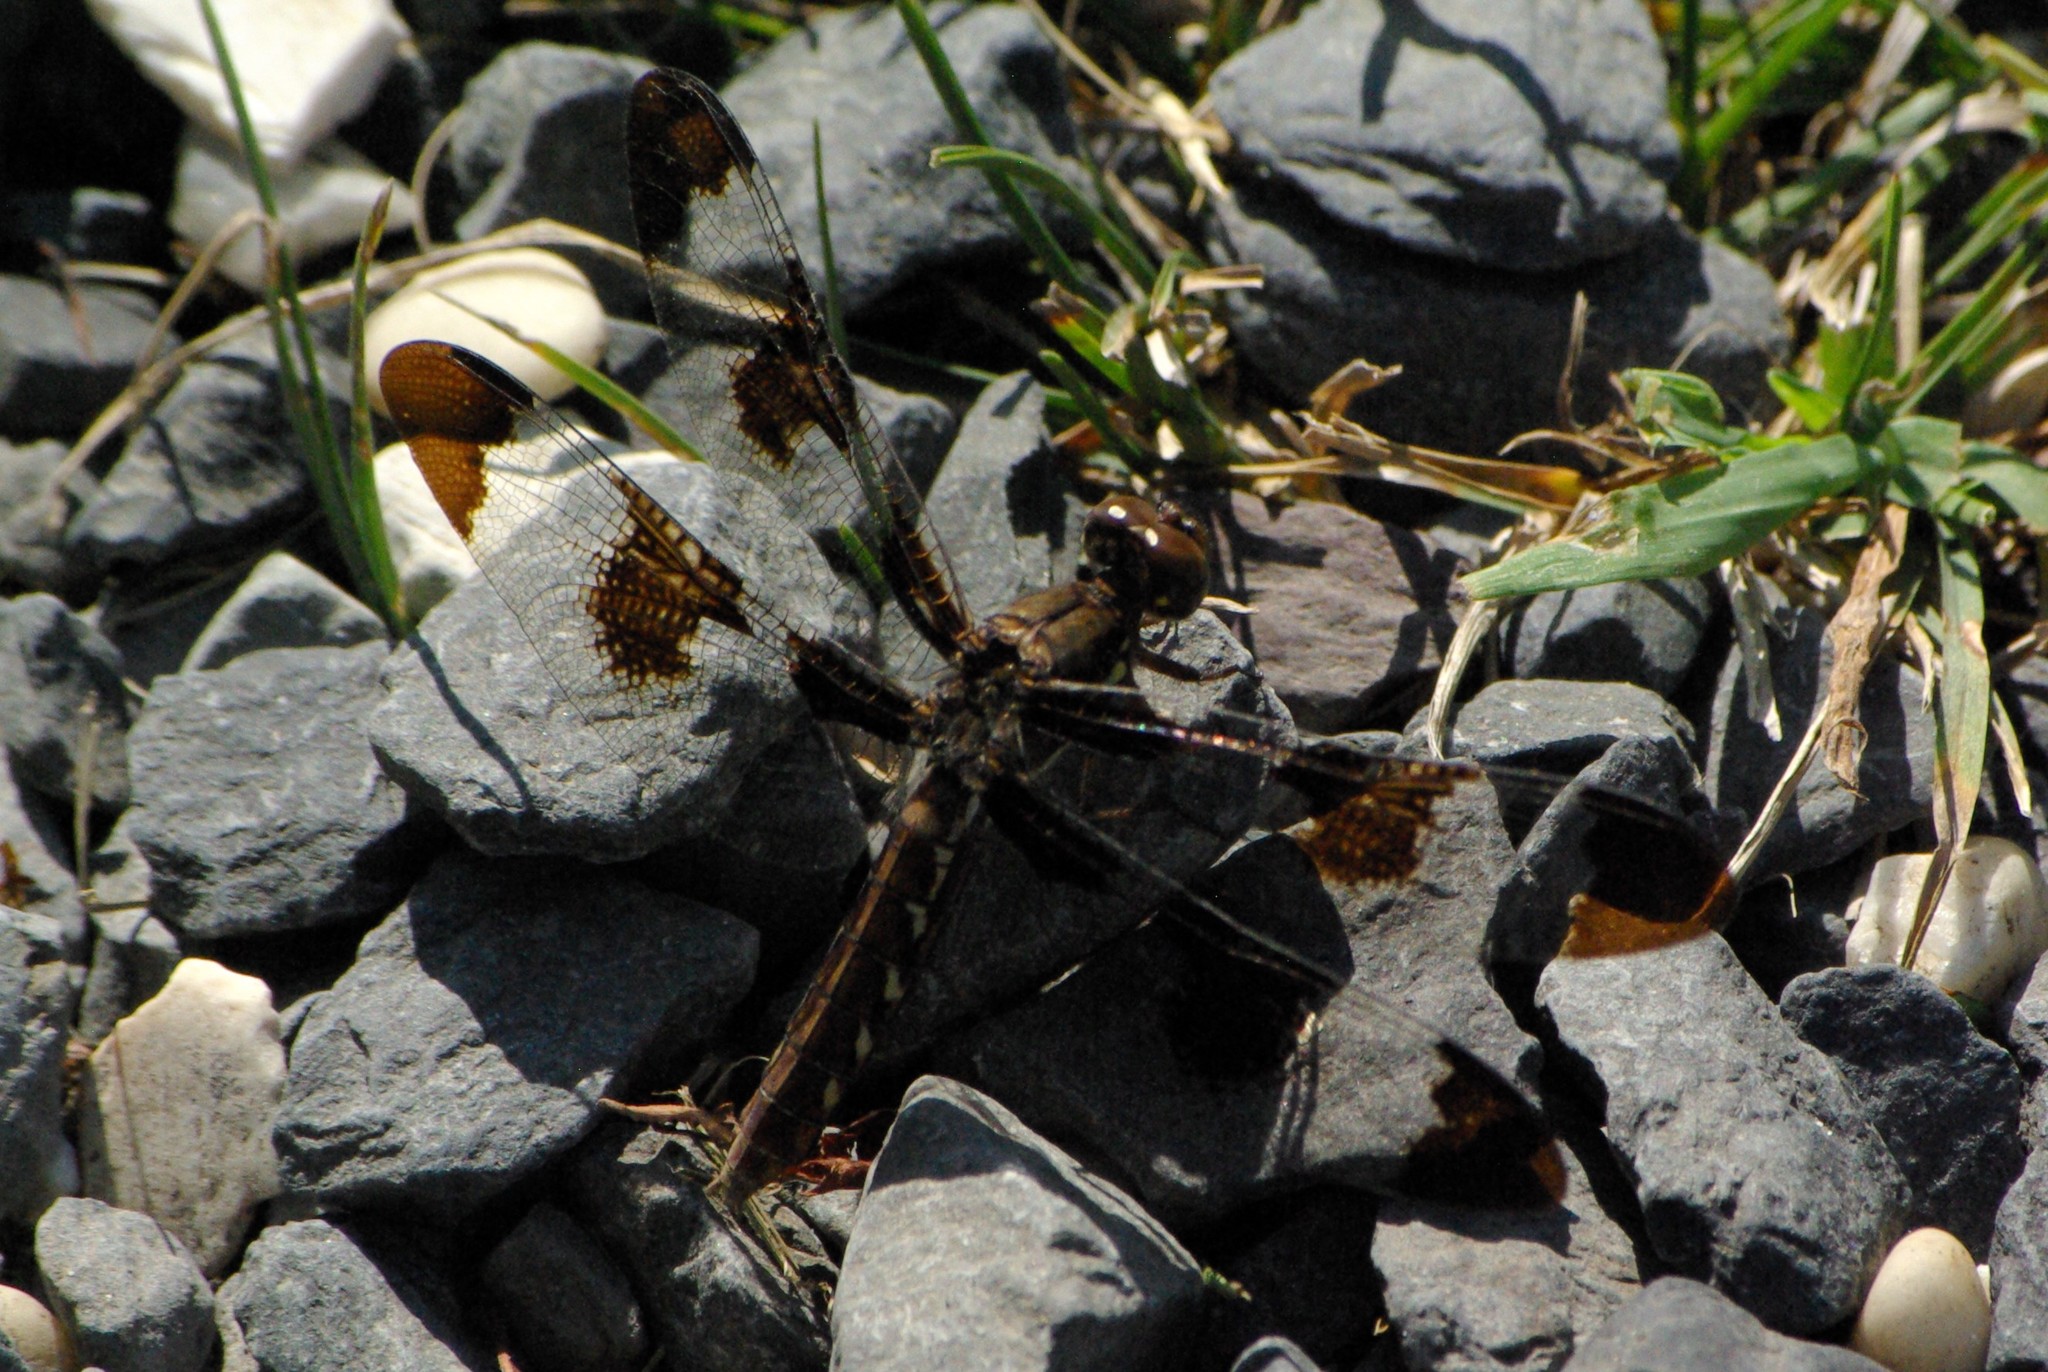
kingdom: Animalia
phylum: Arthropoda
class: Insecta
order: Odonata
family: Libellulidae
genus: Plathemis
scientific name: Plathemis lydia
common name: Common whitetail
